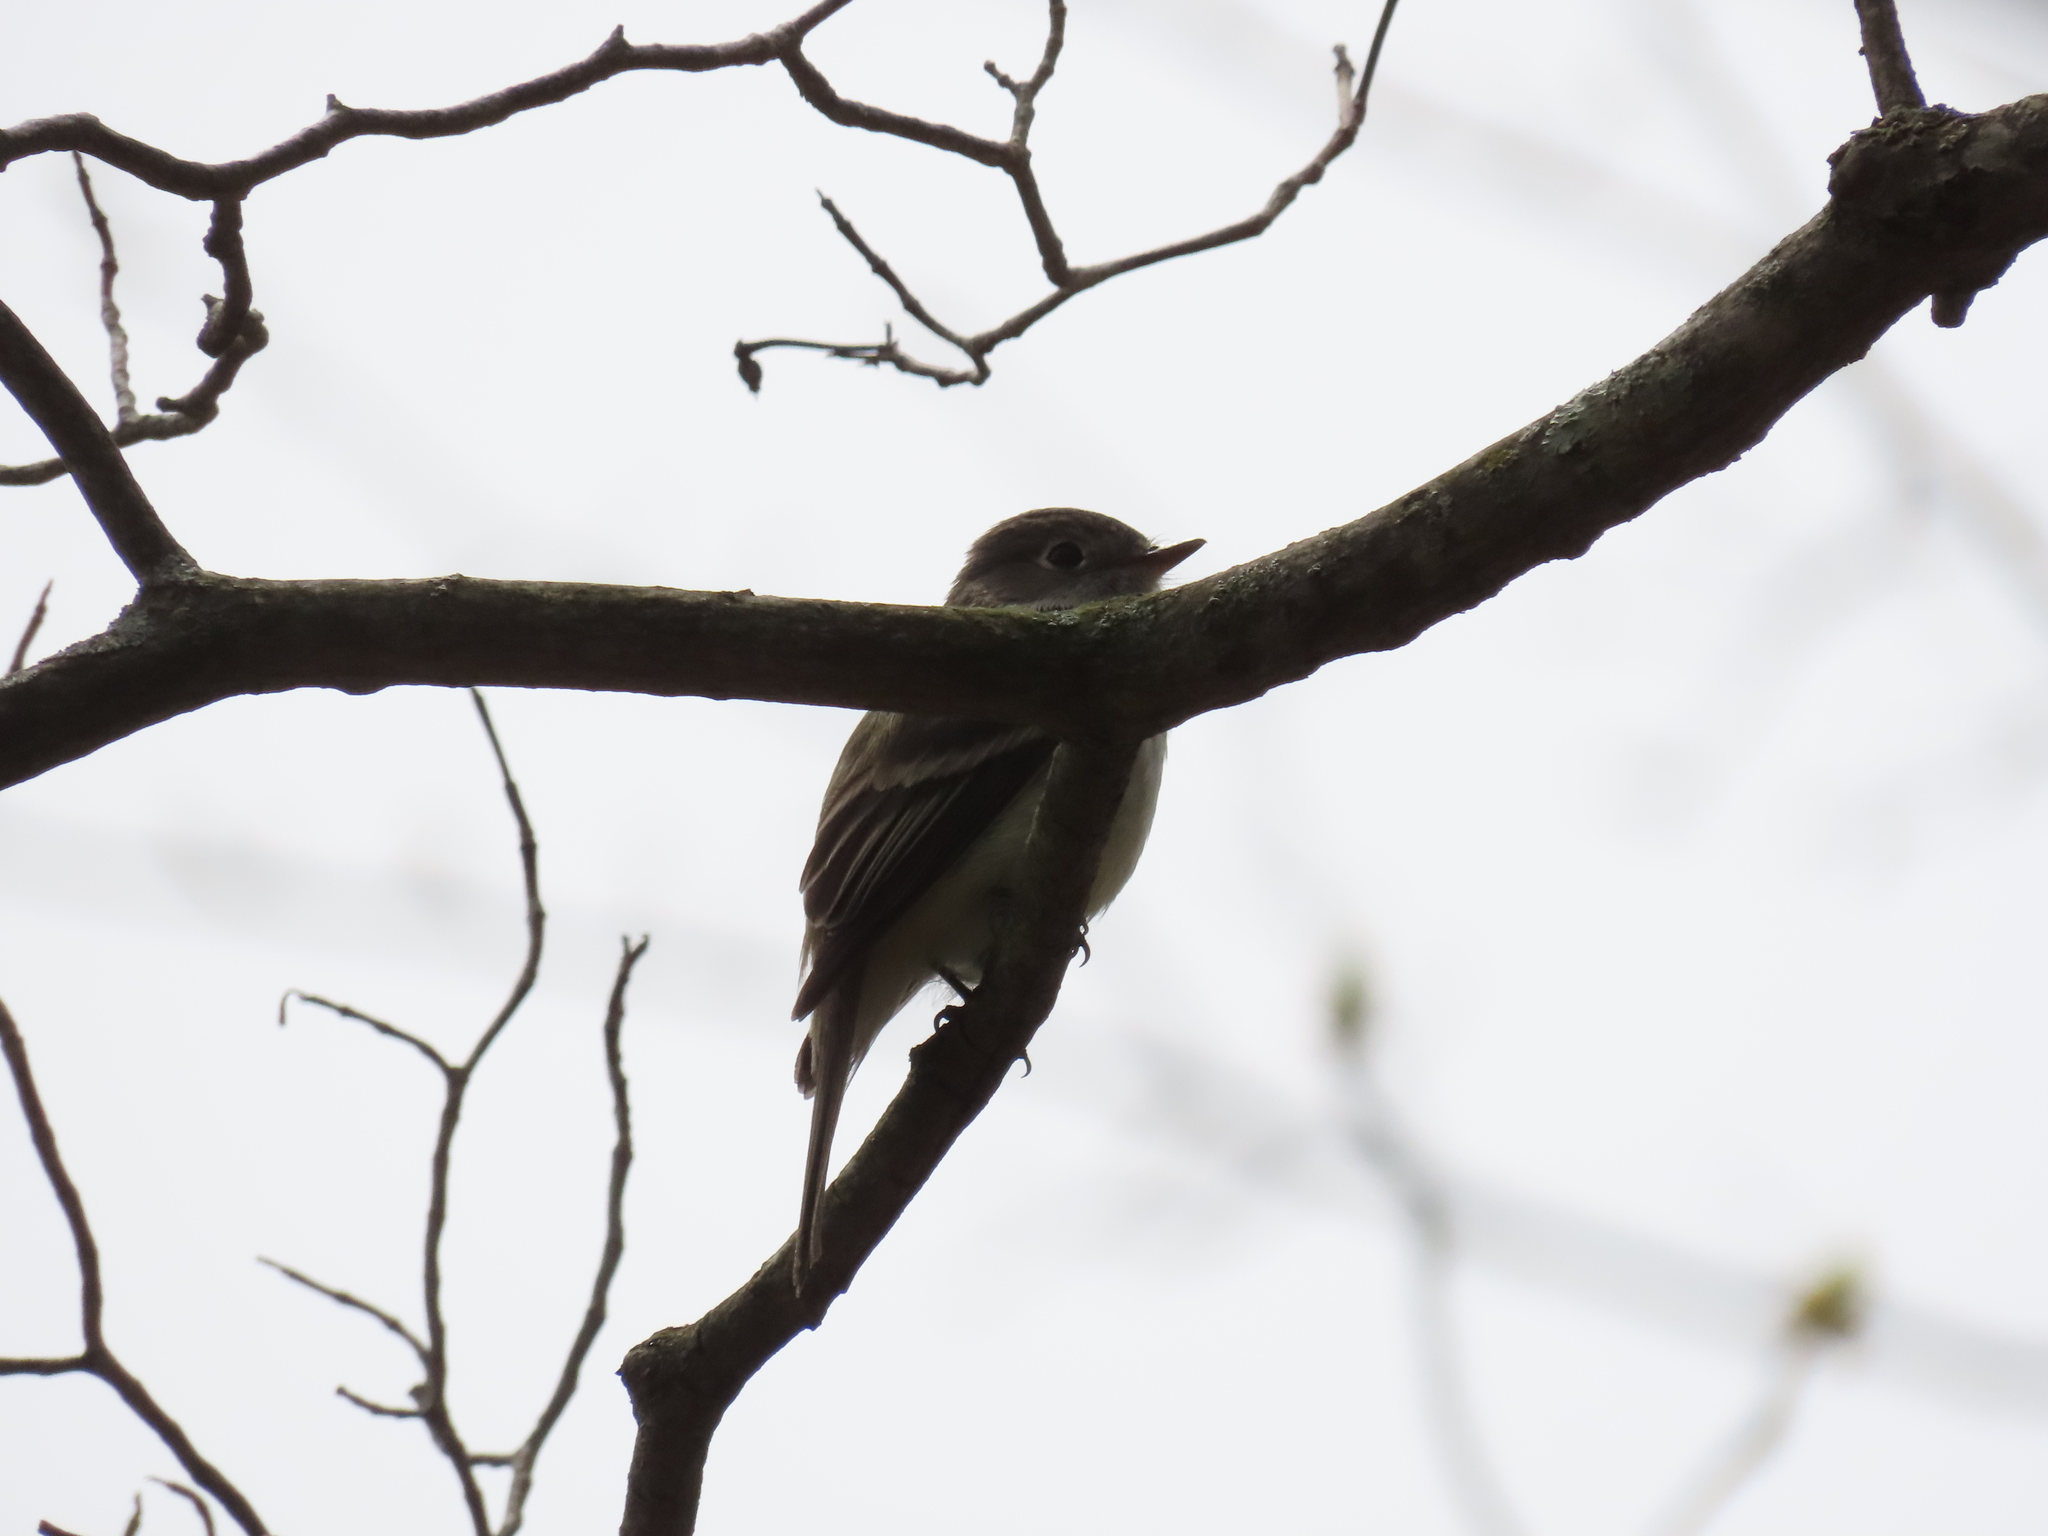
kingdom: Animalia
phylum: Chordata
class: Aves
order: Passeriformes
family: Tyrannidae
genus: Empidonax
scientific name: Empidonax minimus
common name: Least flycatcher
